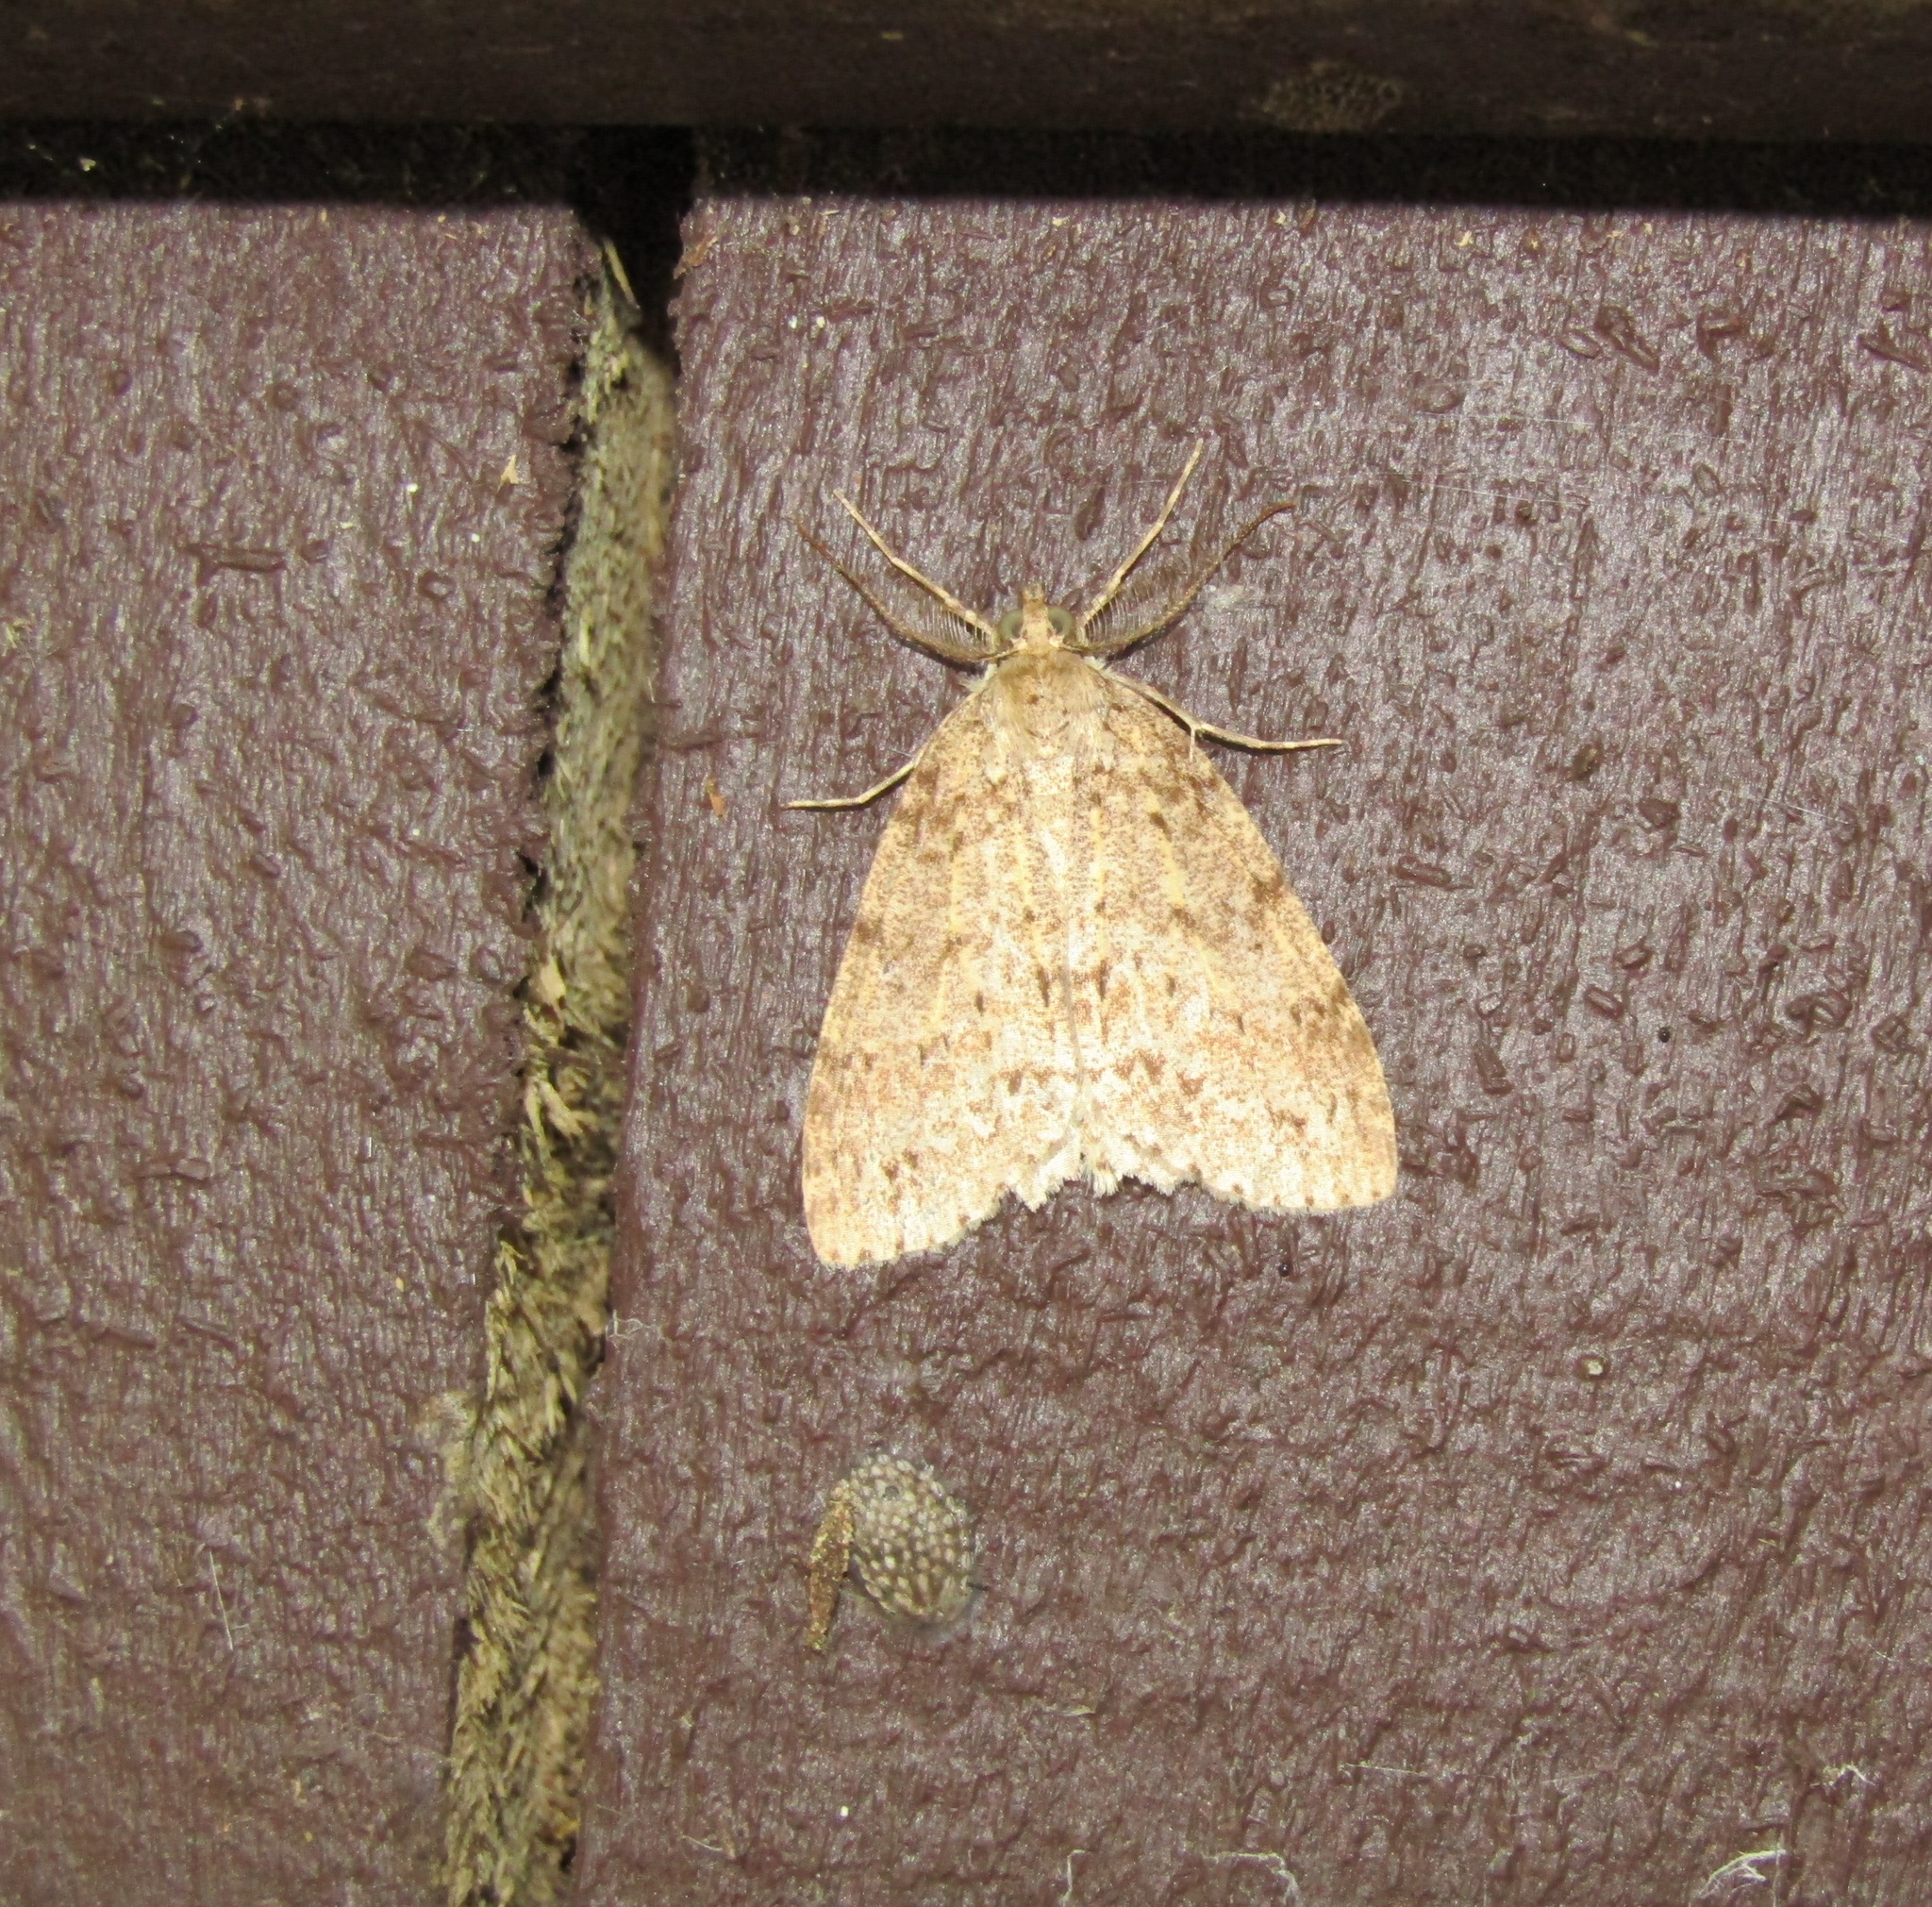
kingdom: Animalia
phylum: Arthropoda
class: Insecta
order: Lepidoptera
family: Geometridae
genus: Pseudocoremia
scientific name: Pseudocoremia fenerata
